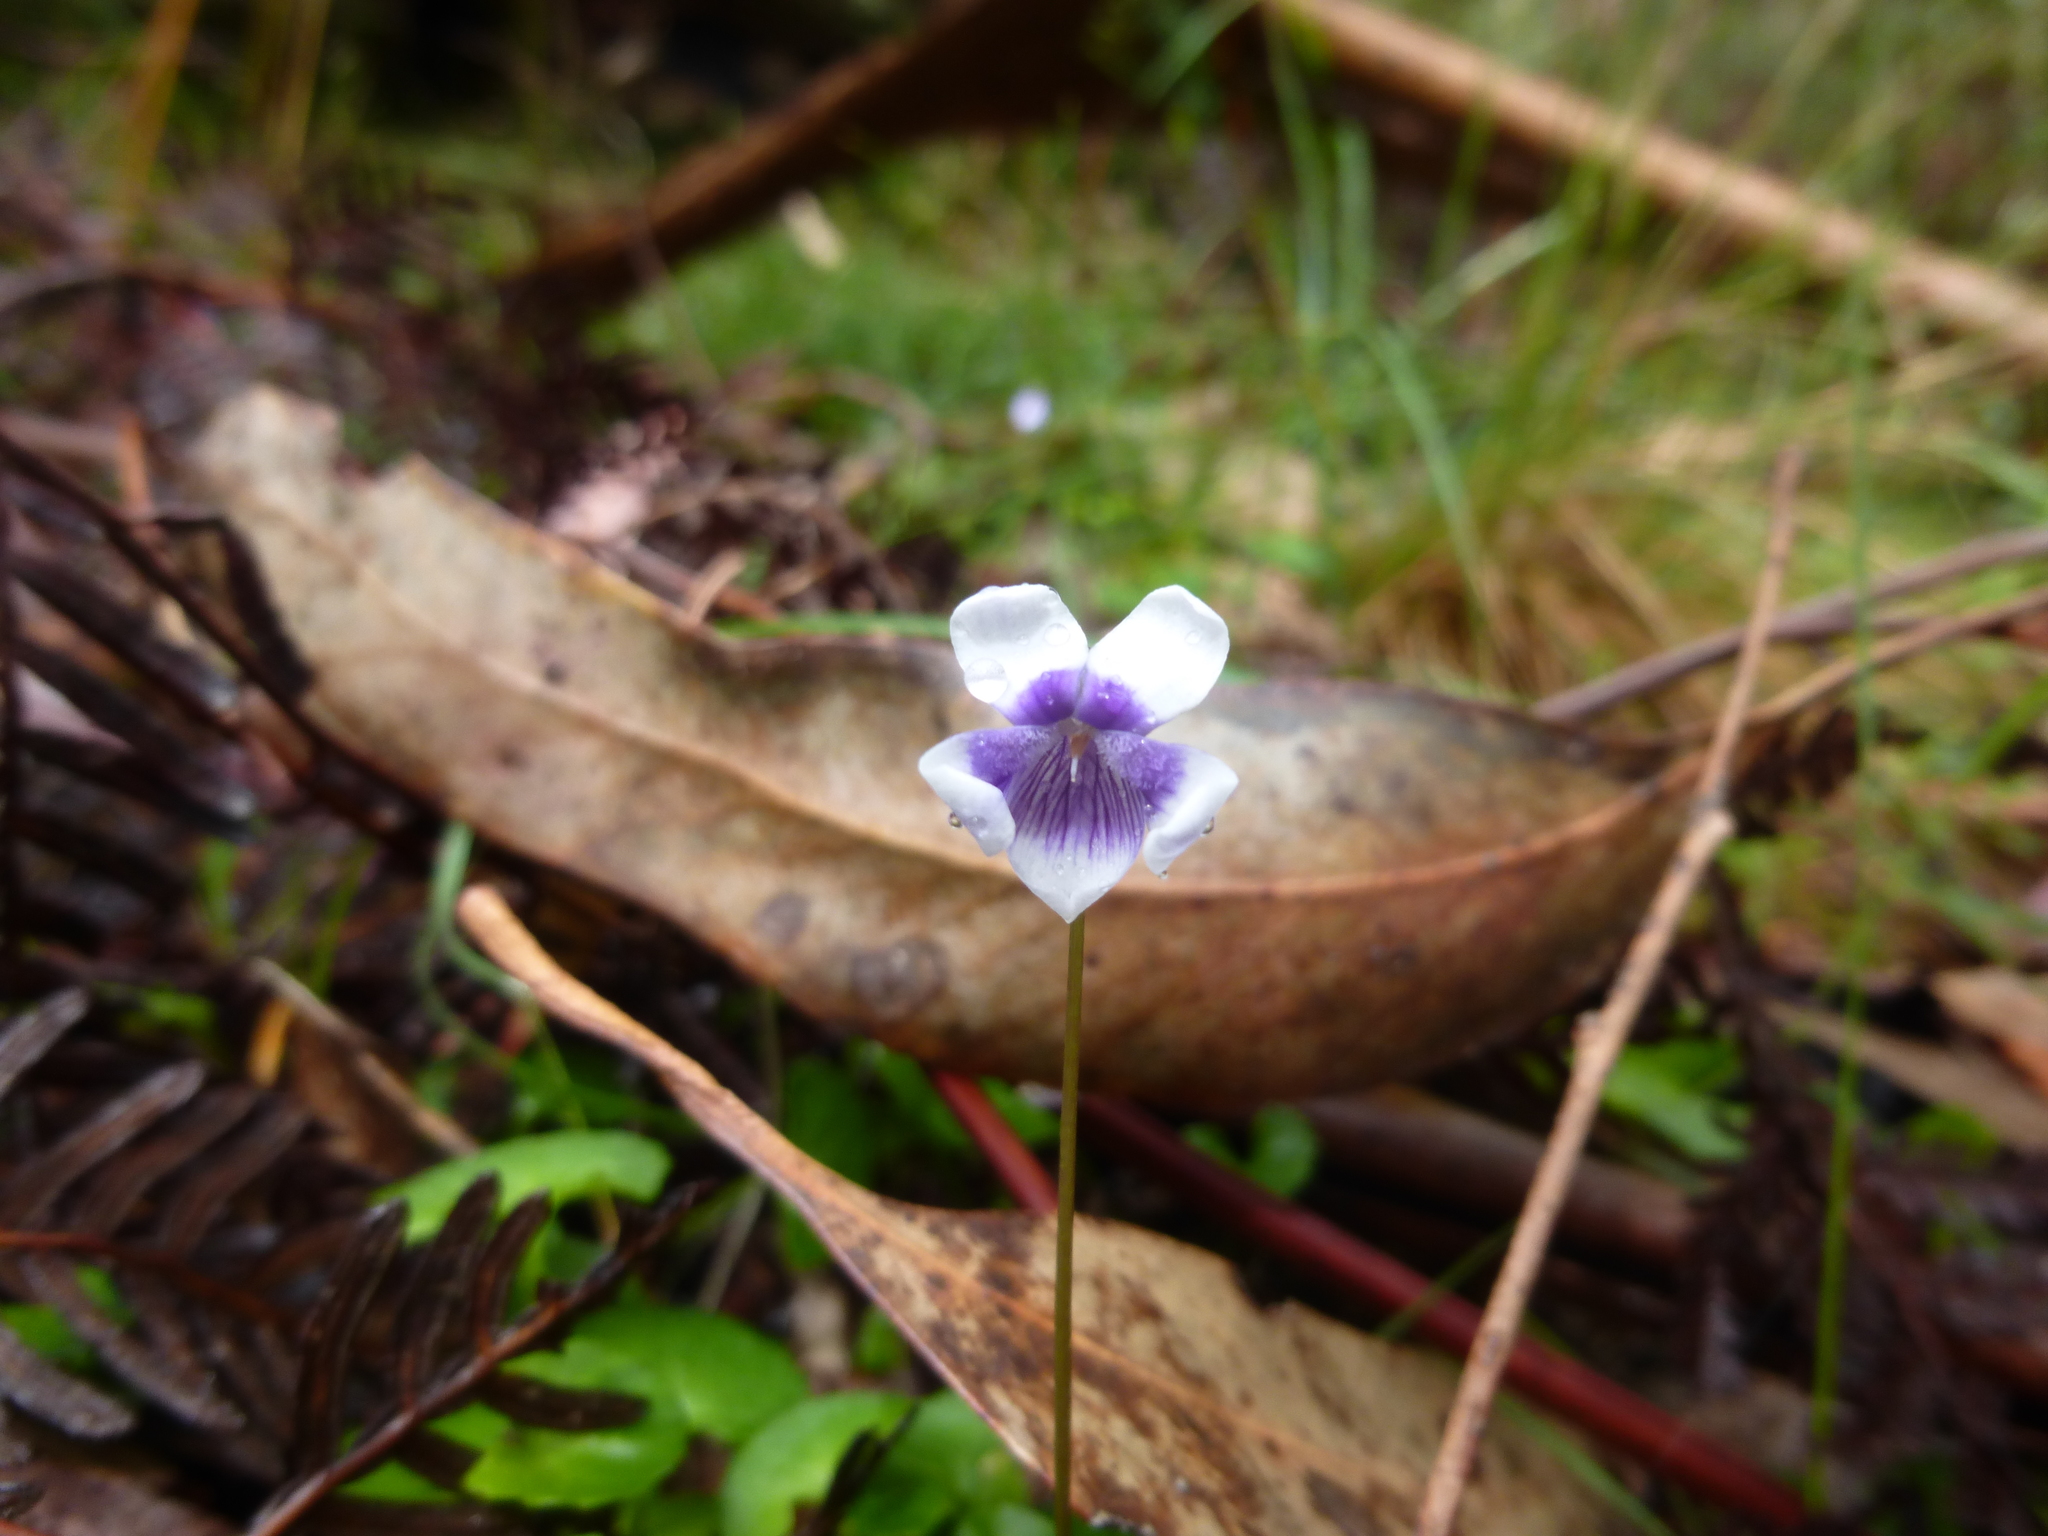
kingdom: Plantae
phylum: Tracheophyta
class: Magnoliopsida
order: Malpighiales
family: Violaceae
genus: Viola
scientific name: Viola eminens
